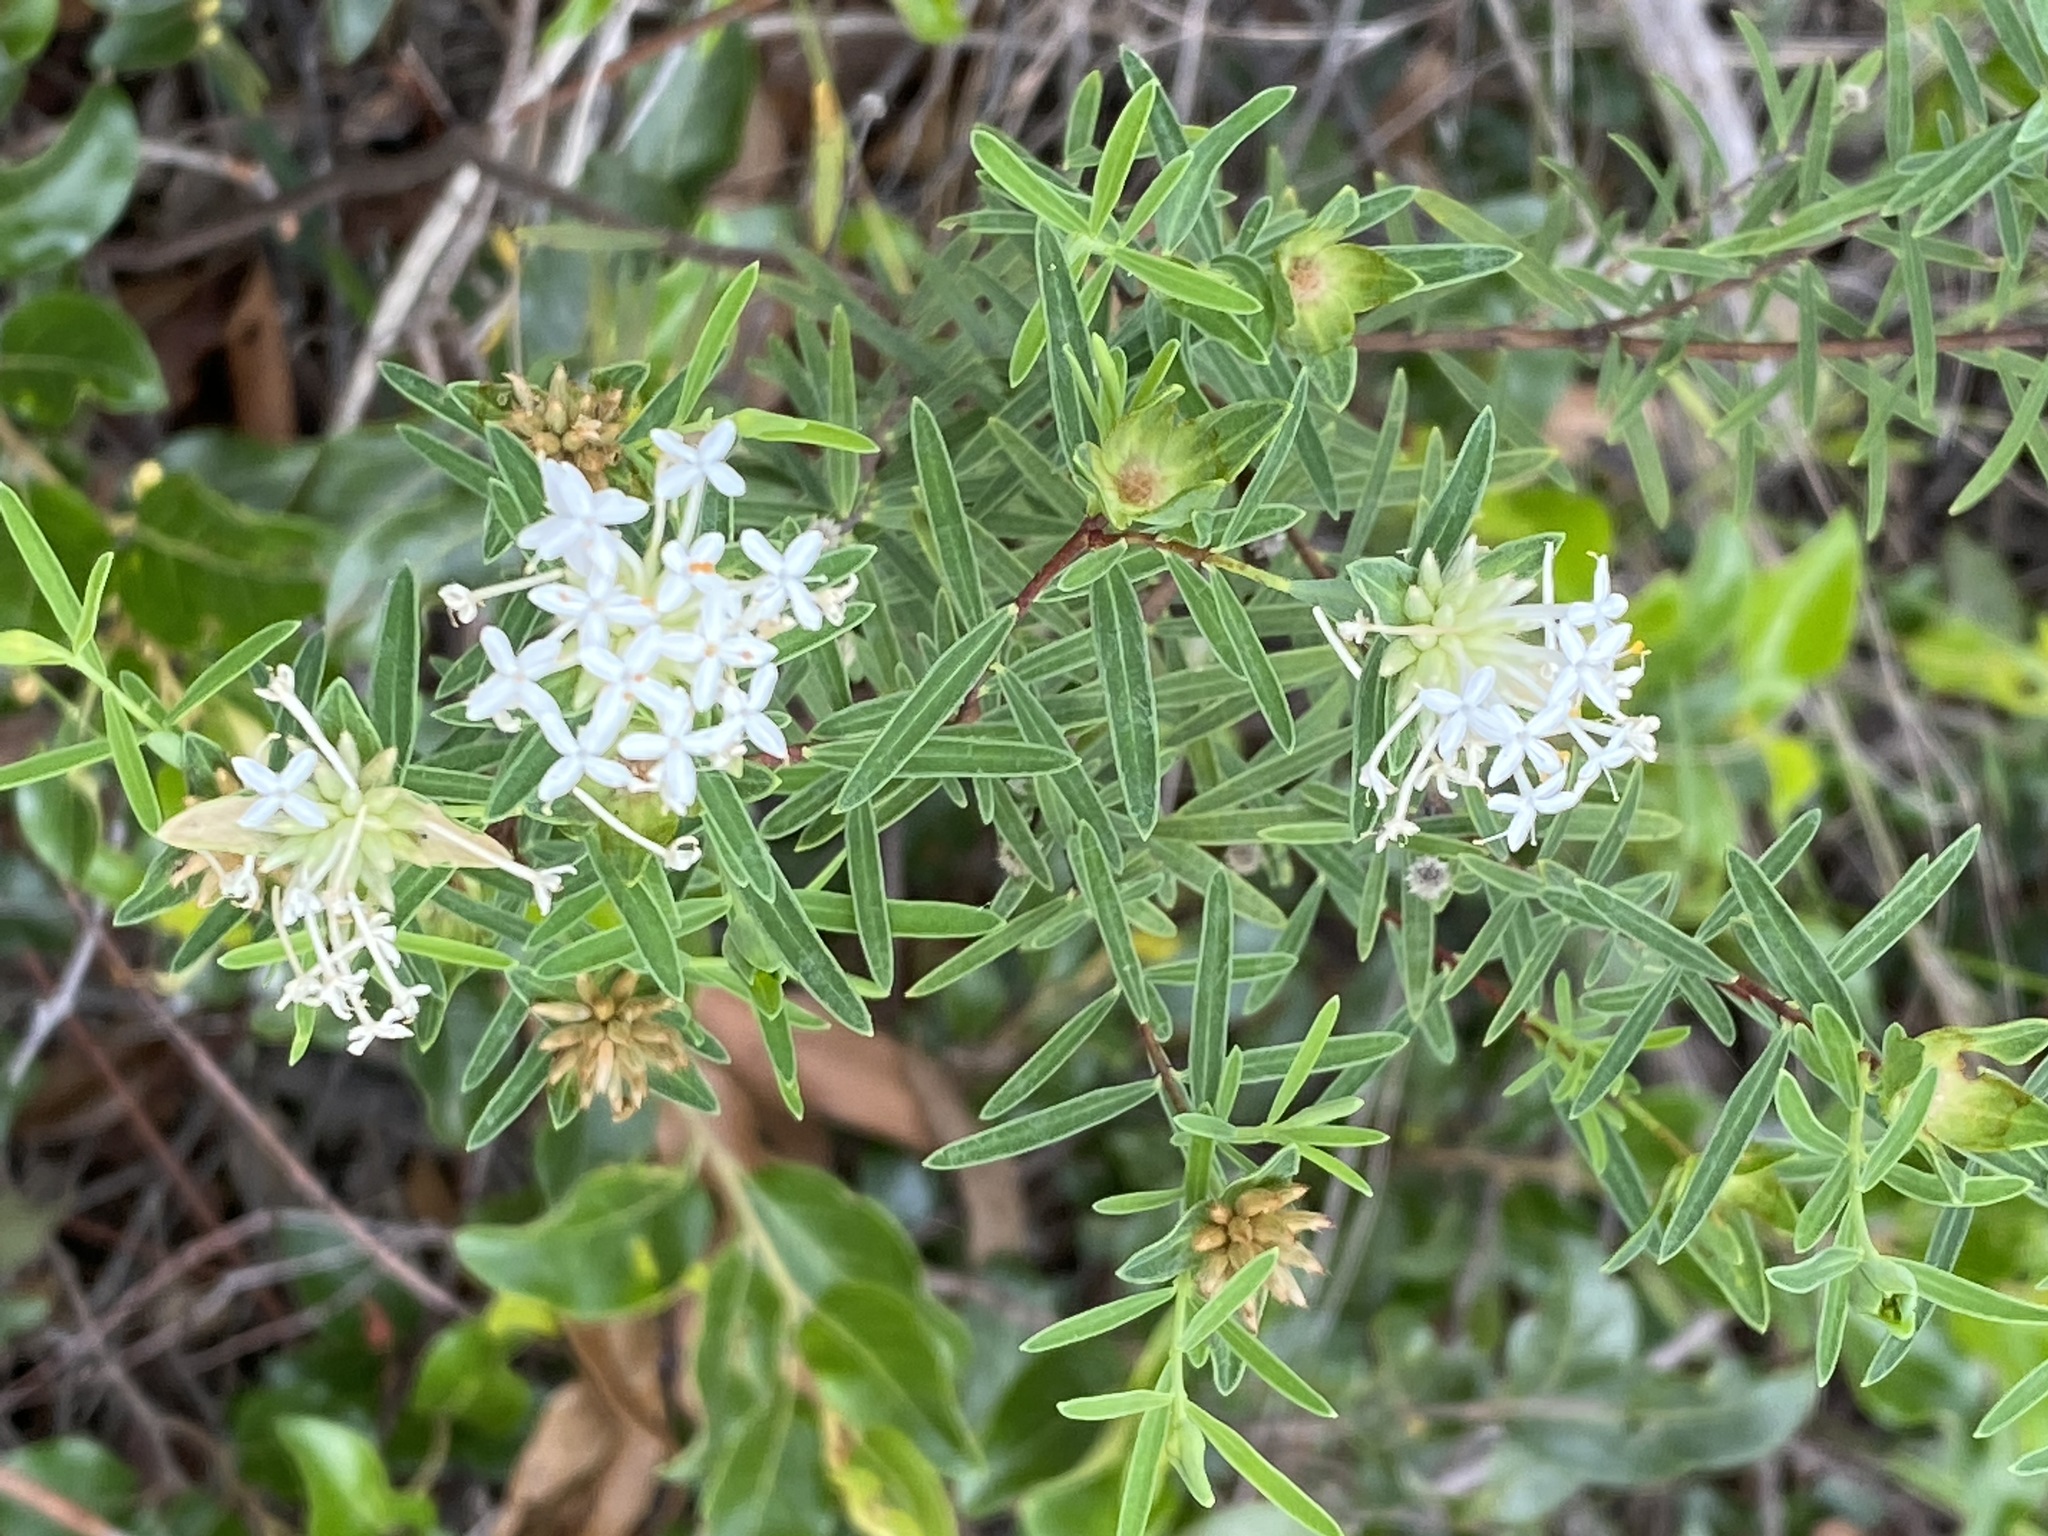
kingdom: Plantae
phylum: Tracheophyta
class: Magnoliopsida
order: Malvales
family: Thymelaeaceae
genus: Pimelea
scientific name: Pimelea linifolia
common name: Queen-of-the-bush
